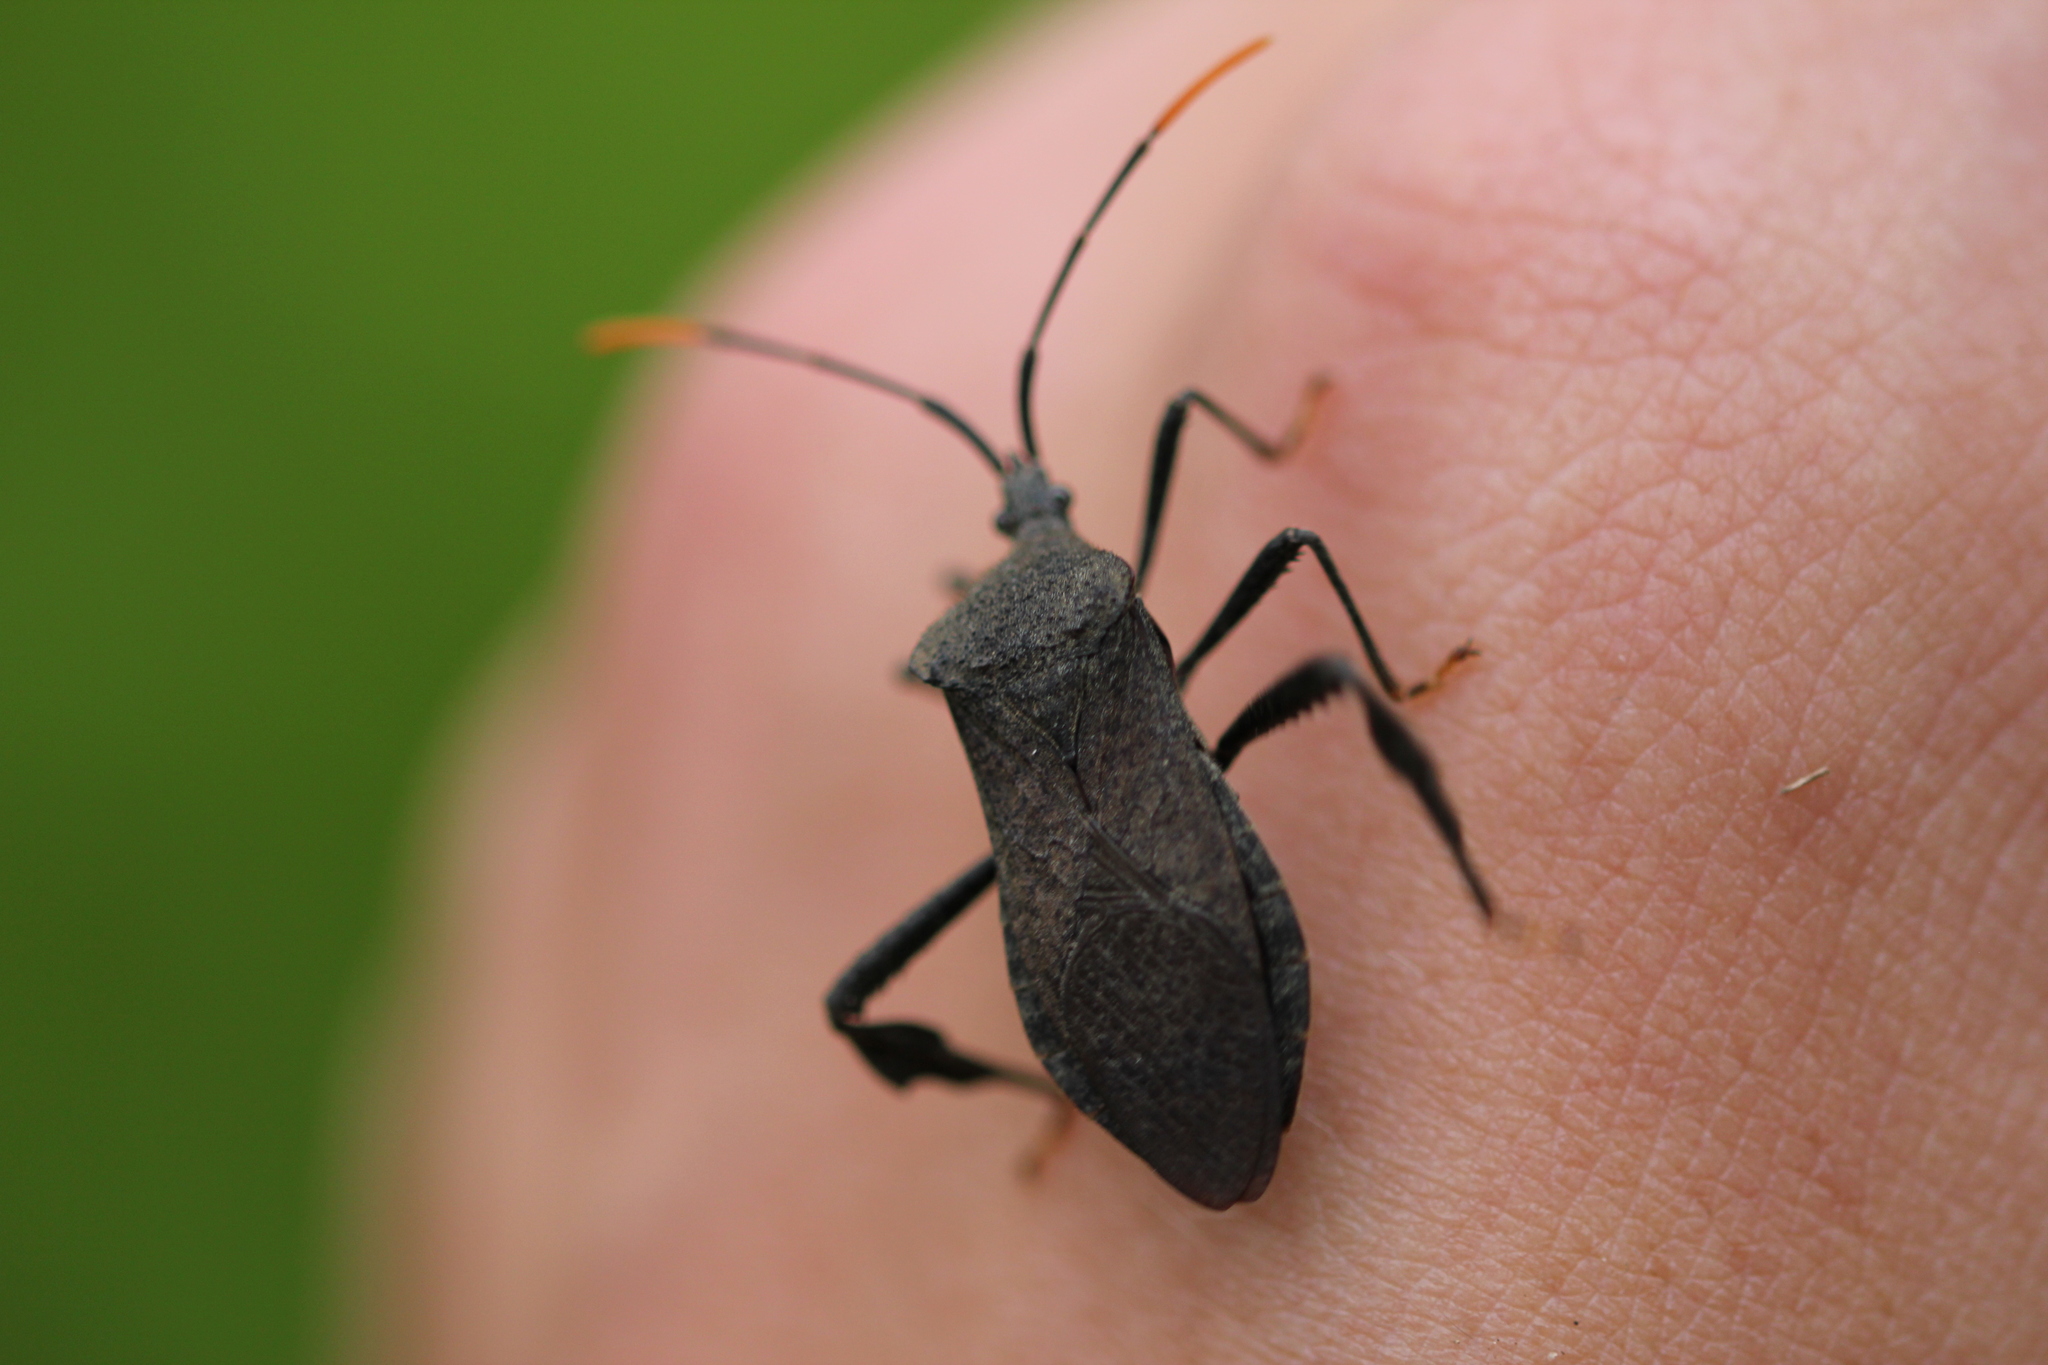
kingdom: Animalia
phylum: Arthropoda
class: Insecta
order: Hemiptera
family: Coreidae
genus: Acanthocephala
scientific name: Acanthocephala terminalis
